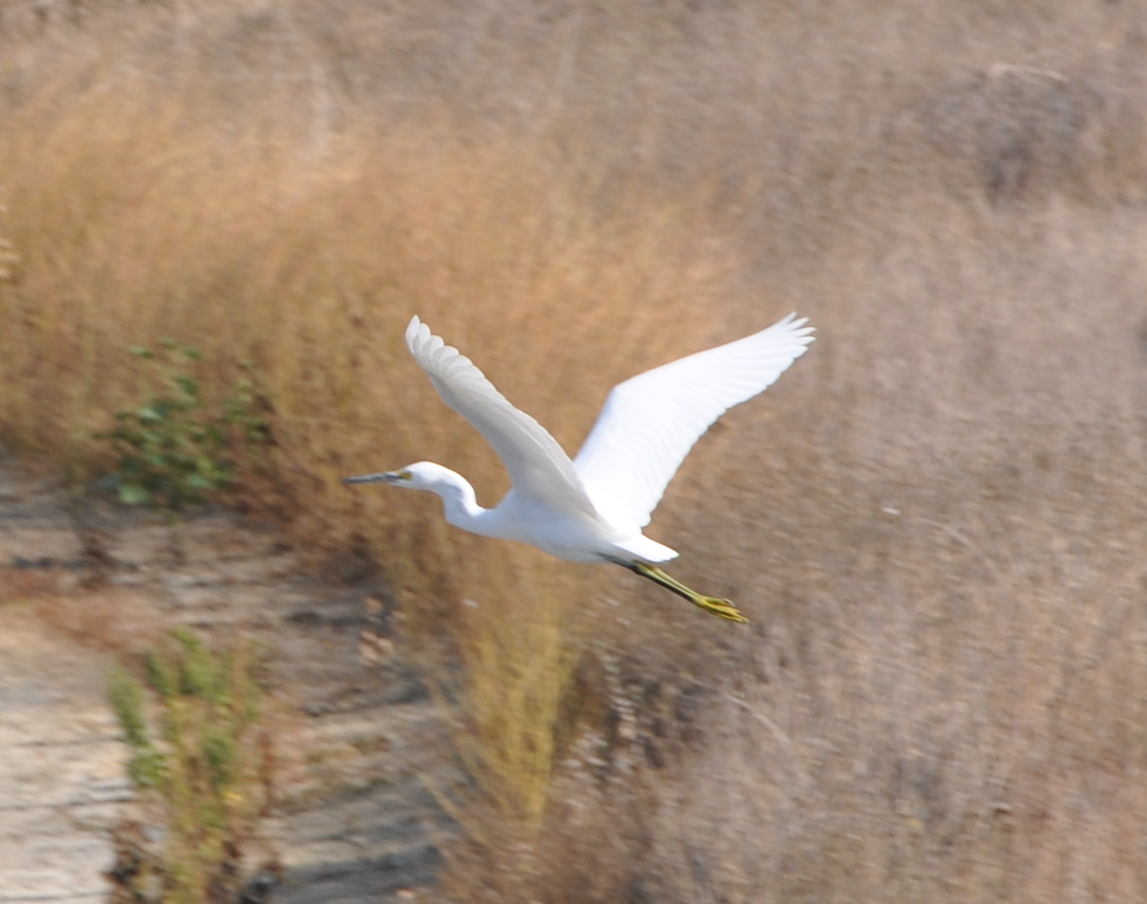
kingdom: Animalia
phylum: Chordata
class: Aves
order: Pelecaniformes
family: Ardeidae
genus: Egretta
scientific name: Egretta thula
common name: Snowy egret
